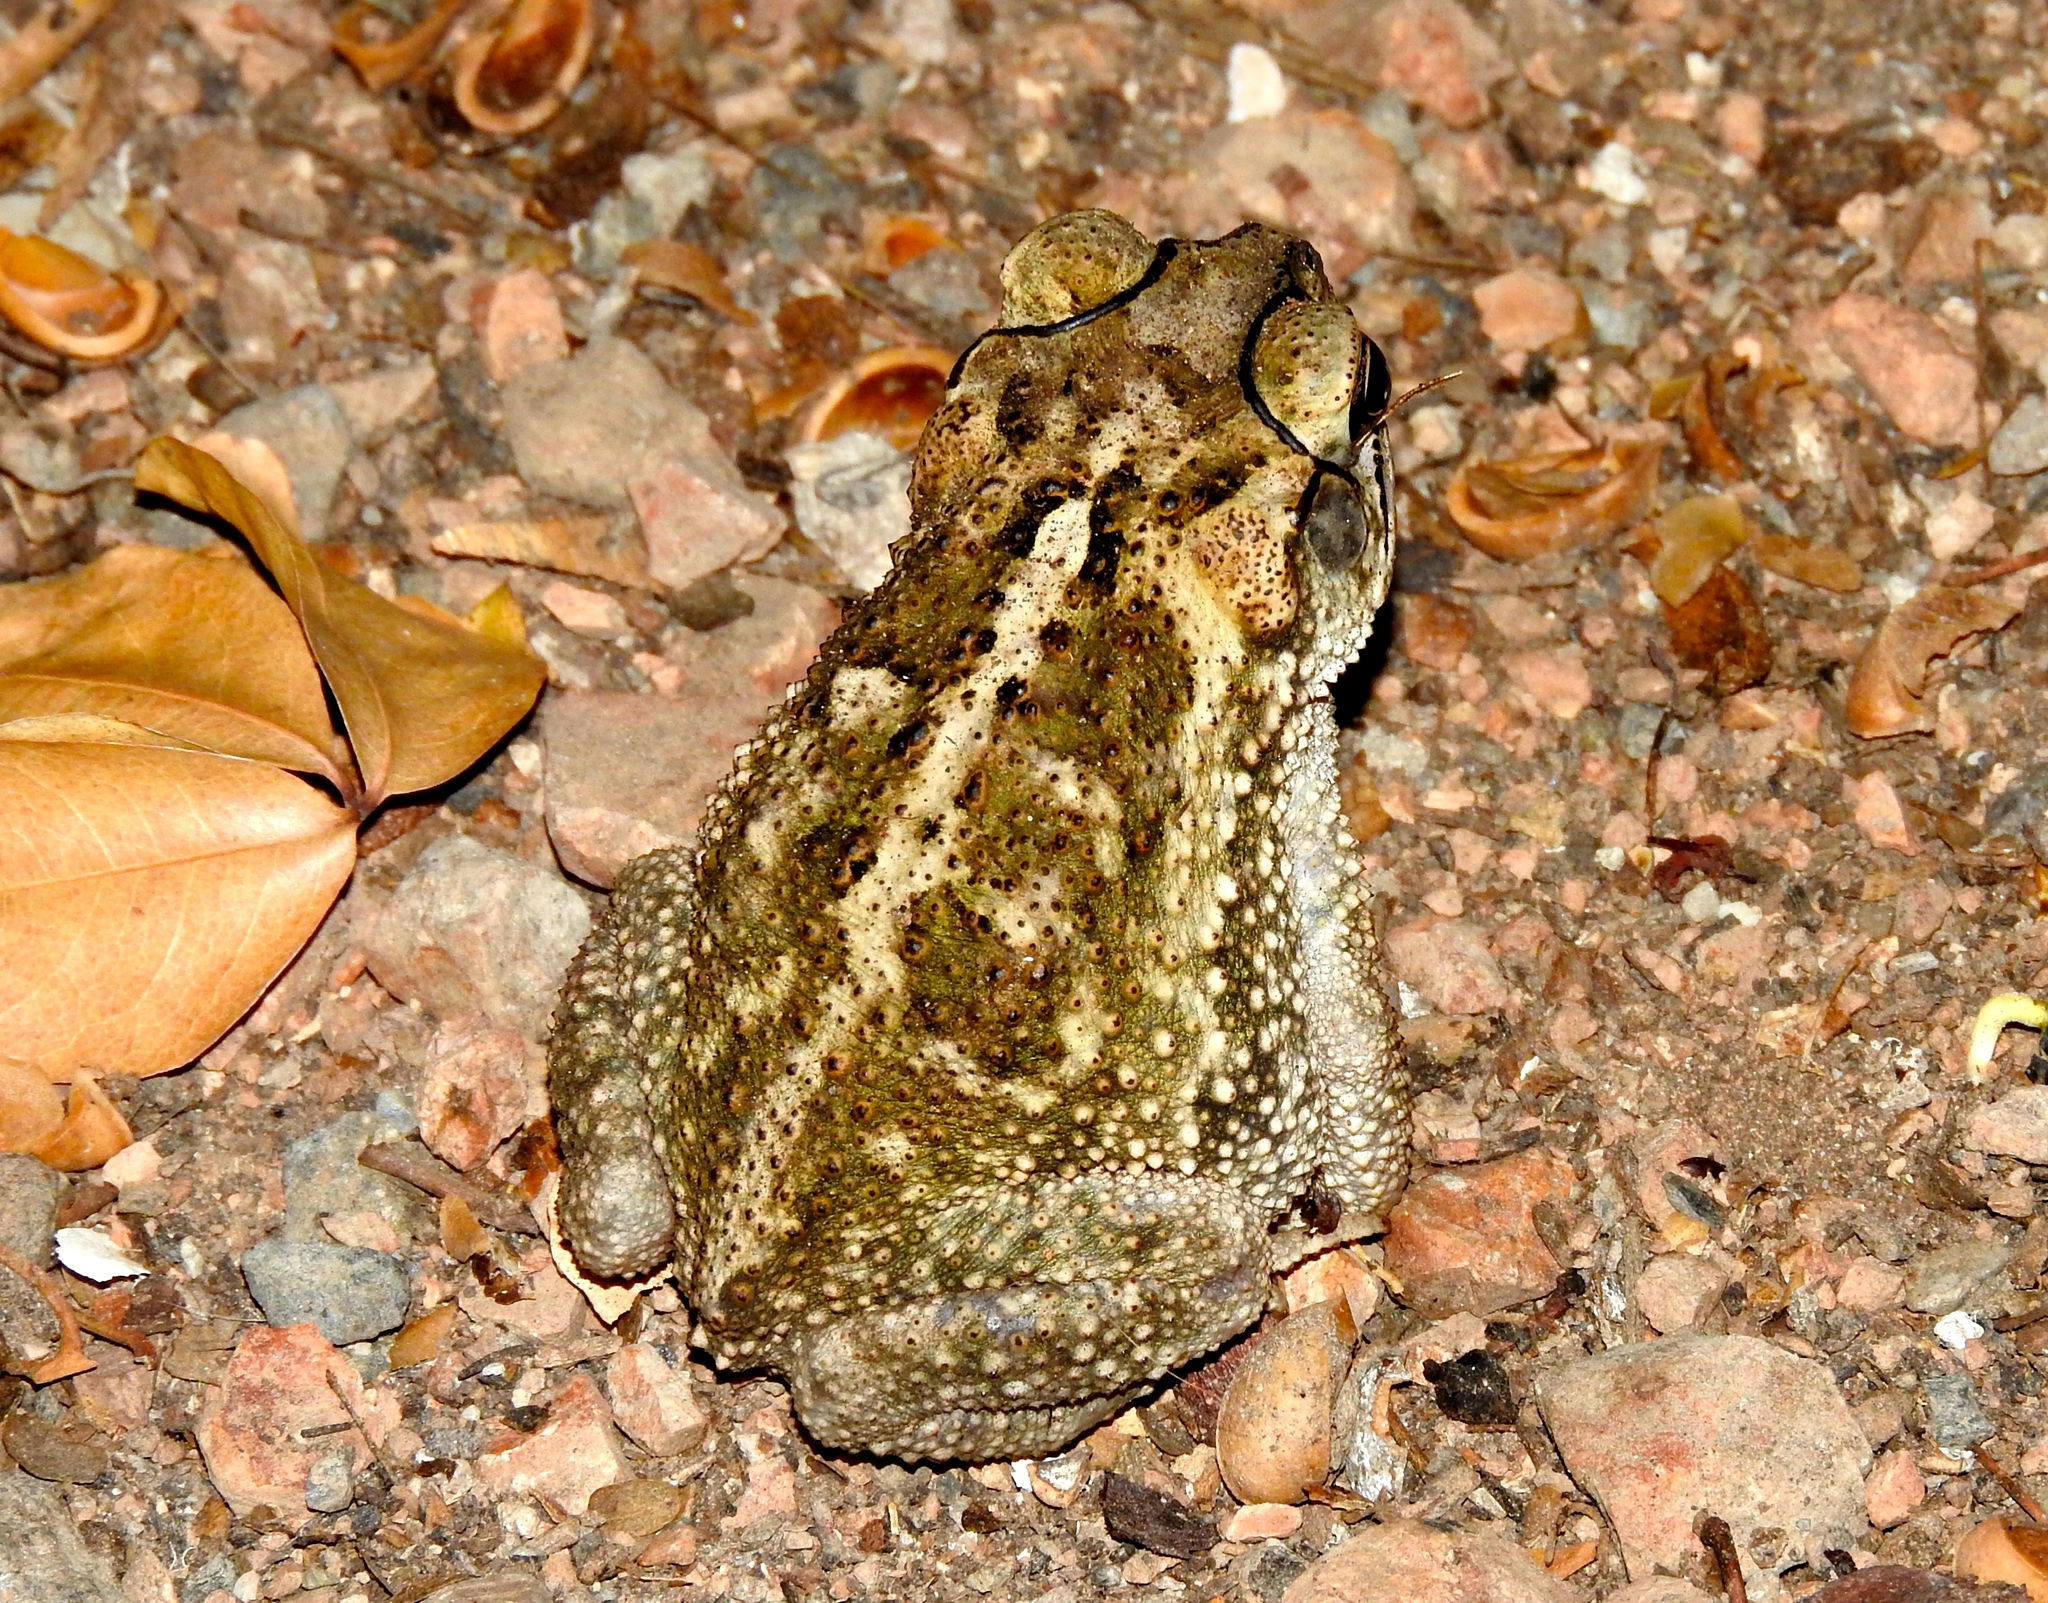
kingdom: Animalia
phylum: Chordata
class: Amphibia
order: Anura
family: Bufonidae
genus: Incilius
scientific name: Incilius mazatlanensis
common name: Sinaloa toad
